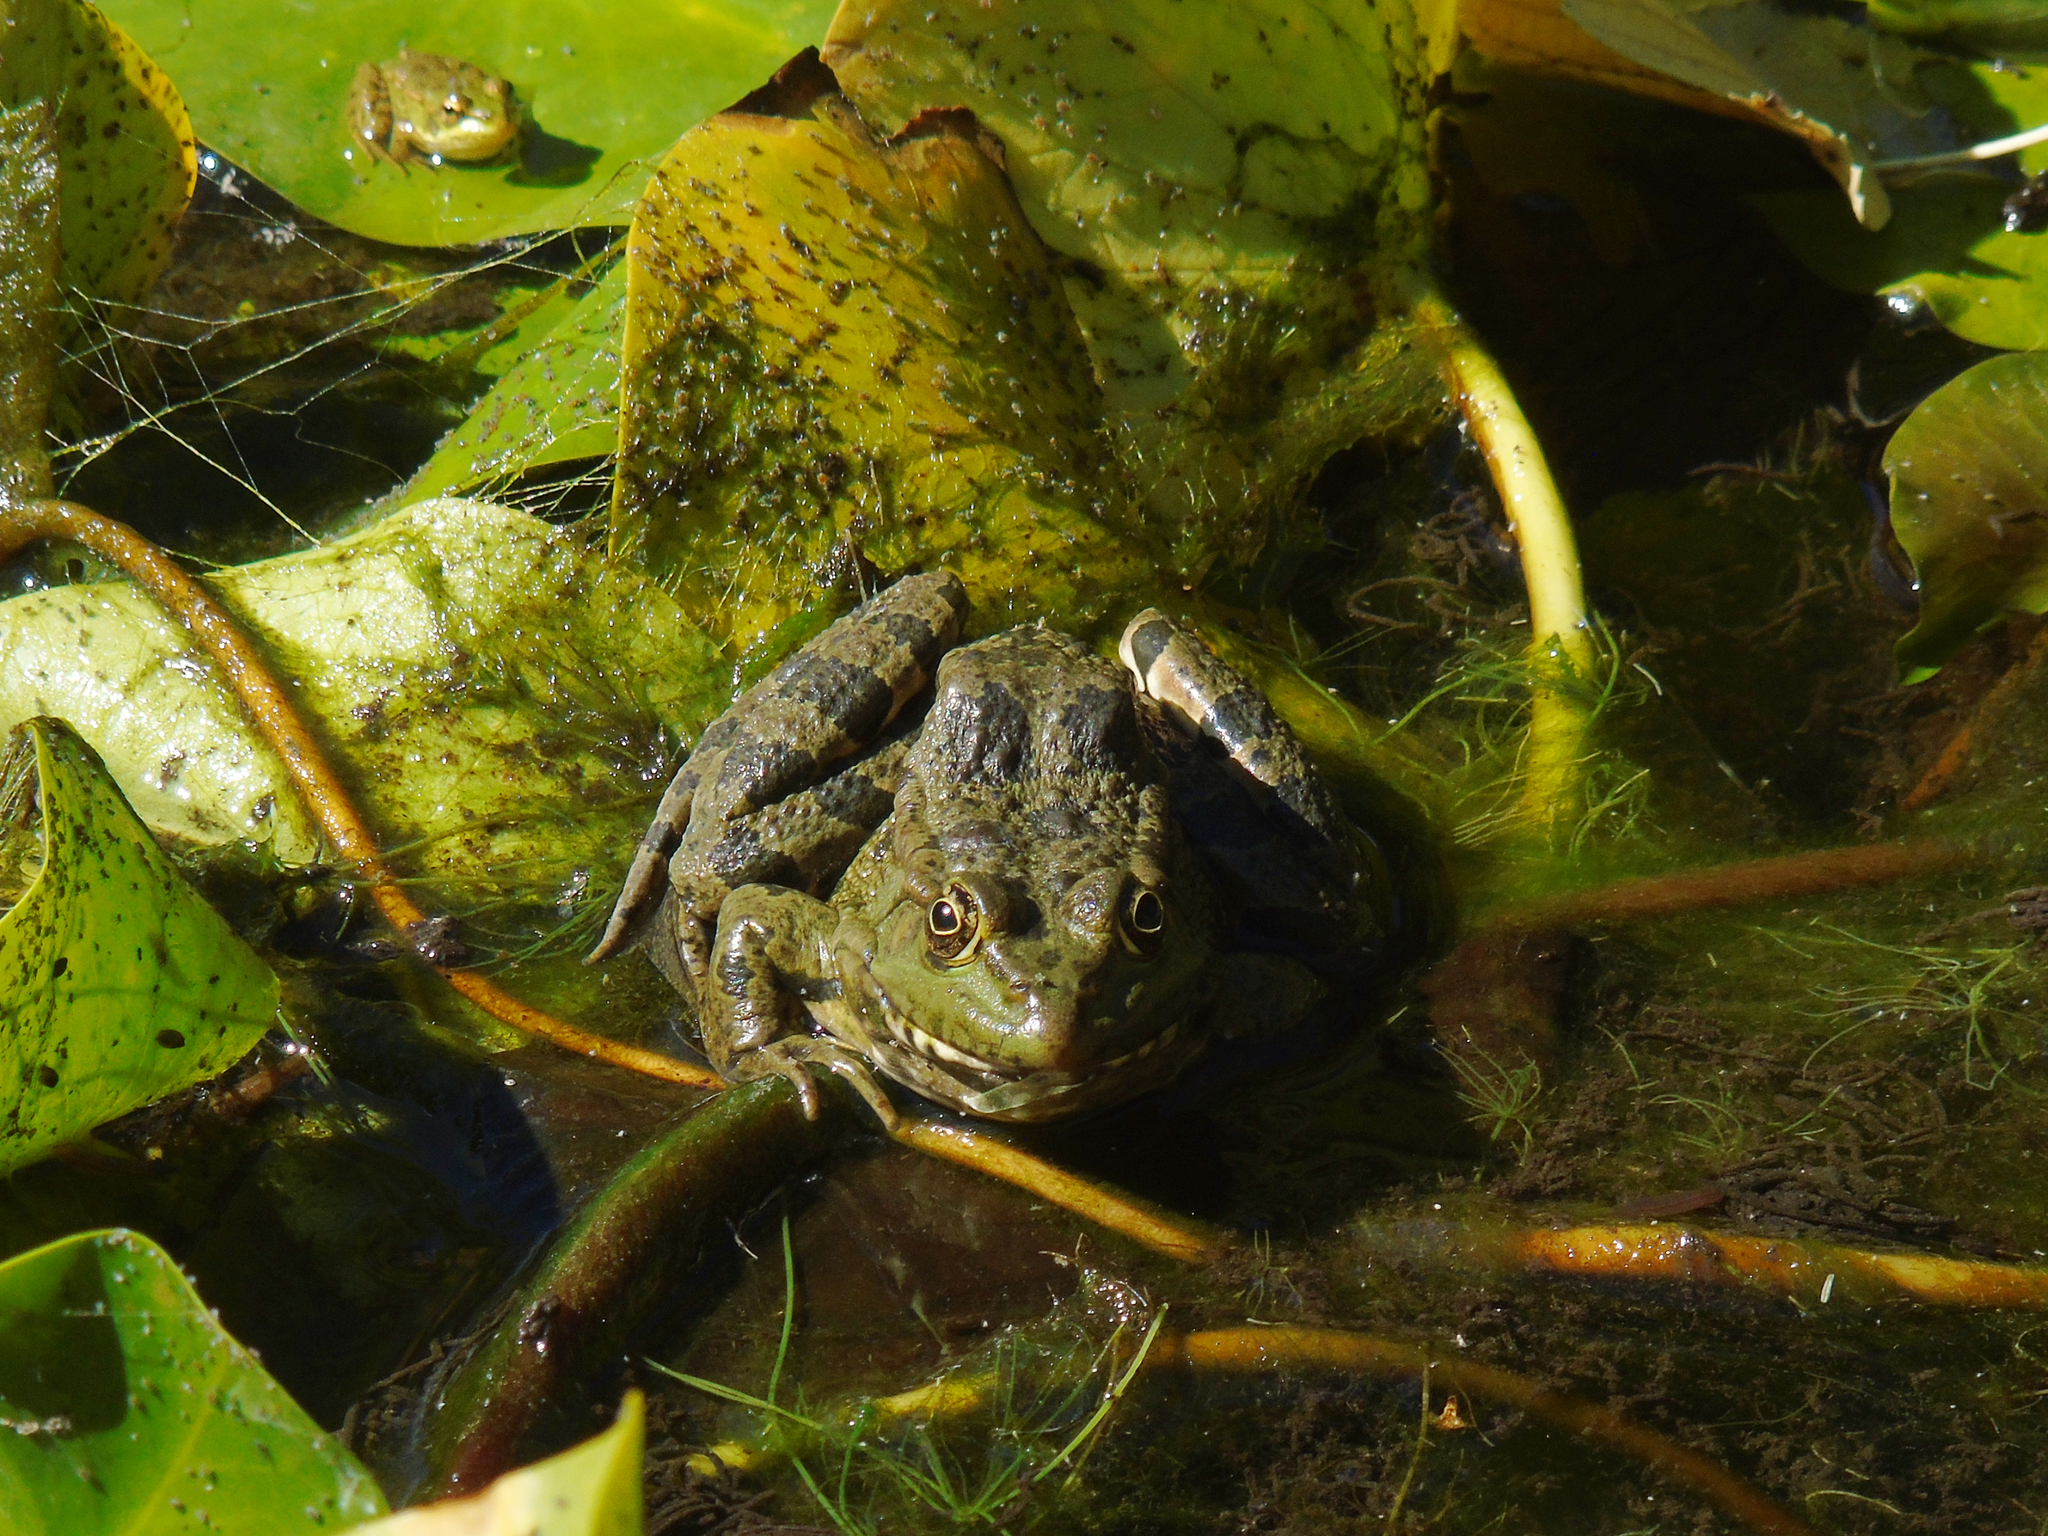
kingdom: Animalia
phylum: Chordata
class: Amphibia
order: Anura
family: Ranidae
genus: Pelophylax
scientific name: Pelophylax ridibundus
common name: Marsh frog
